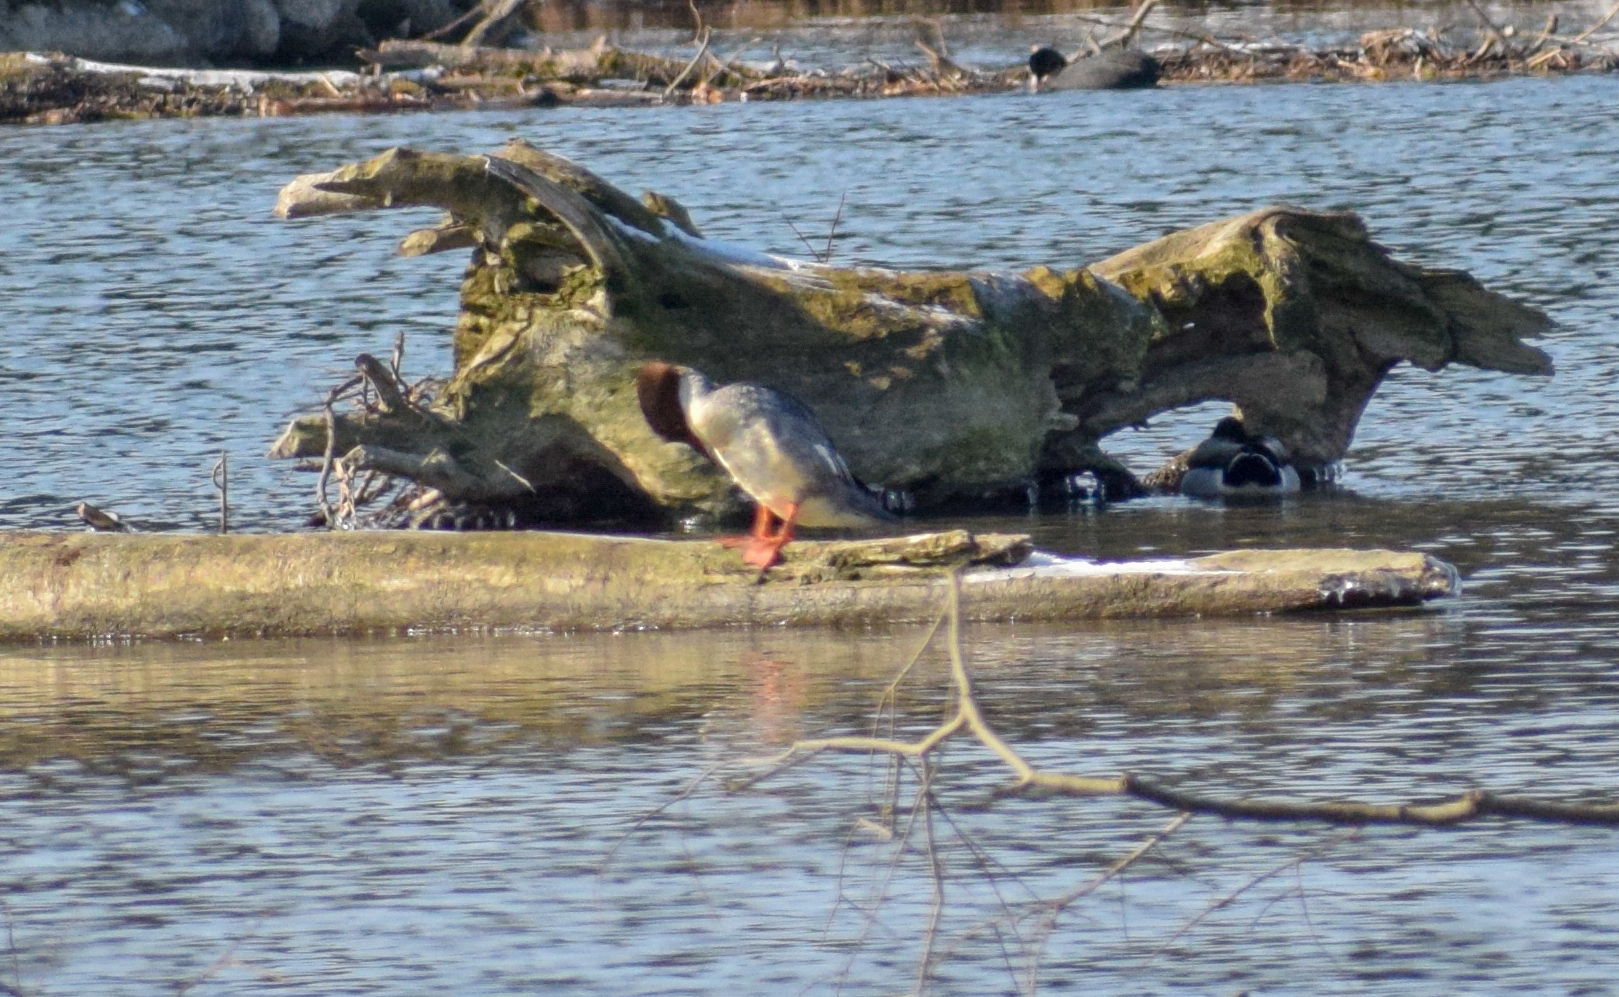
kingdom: Animalia
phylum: Chordata
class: Aves
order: Anseriformes
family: Anatidae
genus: Mergus
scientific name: Mergus merganser
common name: Common merganser
